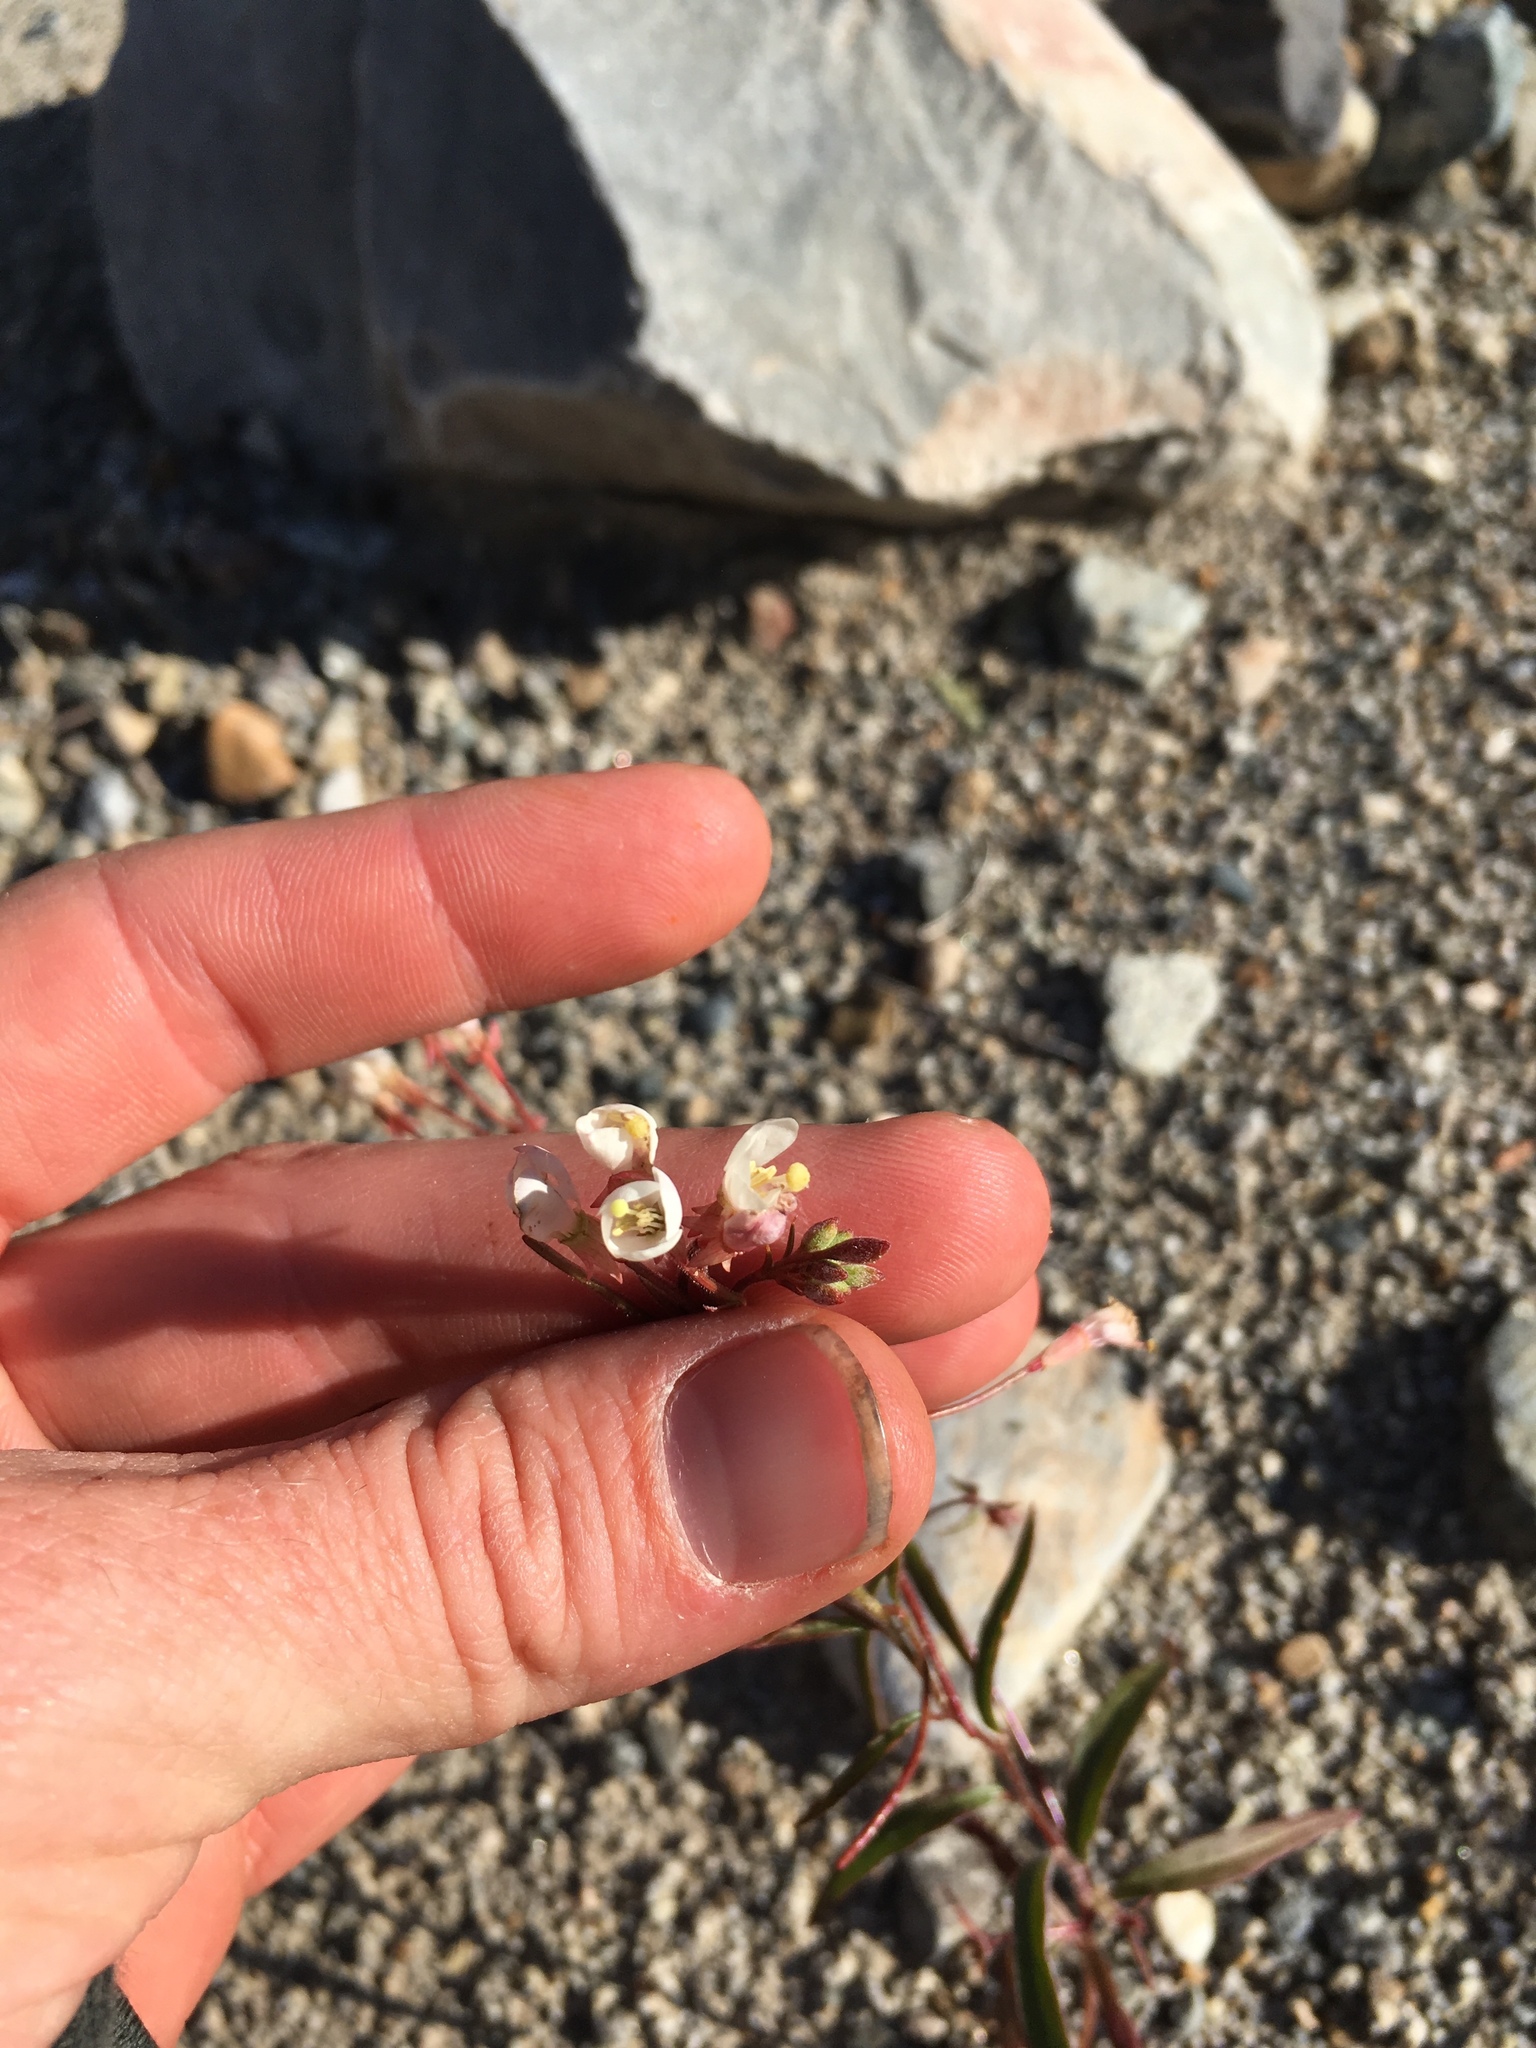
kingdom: Plantae
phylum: Tracheophyta
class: Magnoliopsida
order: Myrtales
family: Onagraceae
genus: Eremothera
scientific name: Eremothera refracta
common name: Narrowleaf suncup
